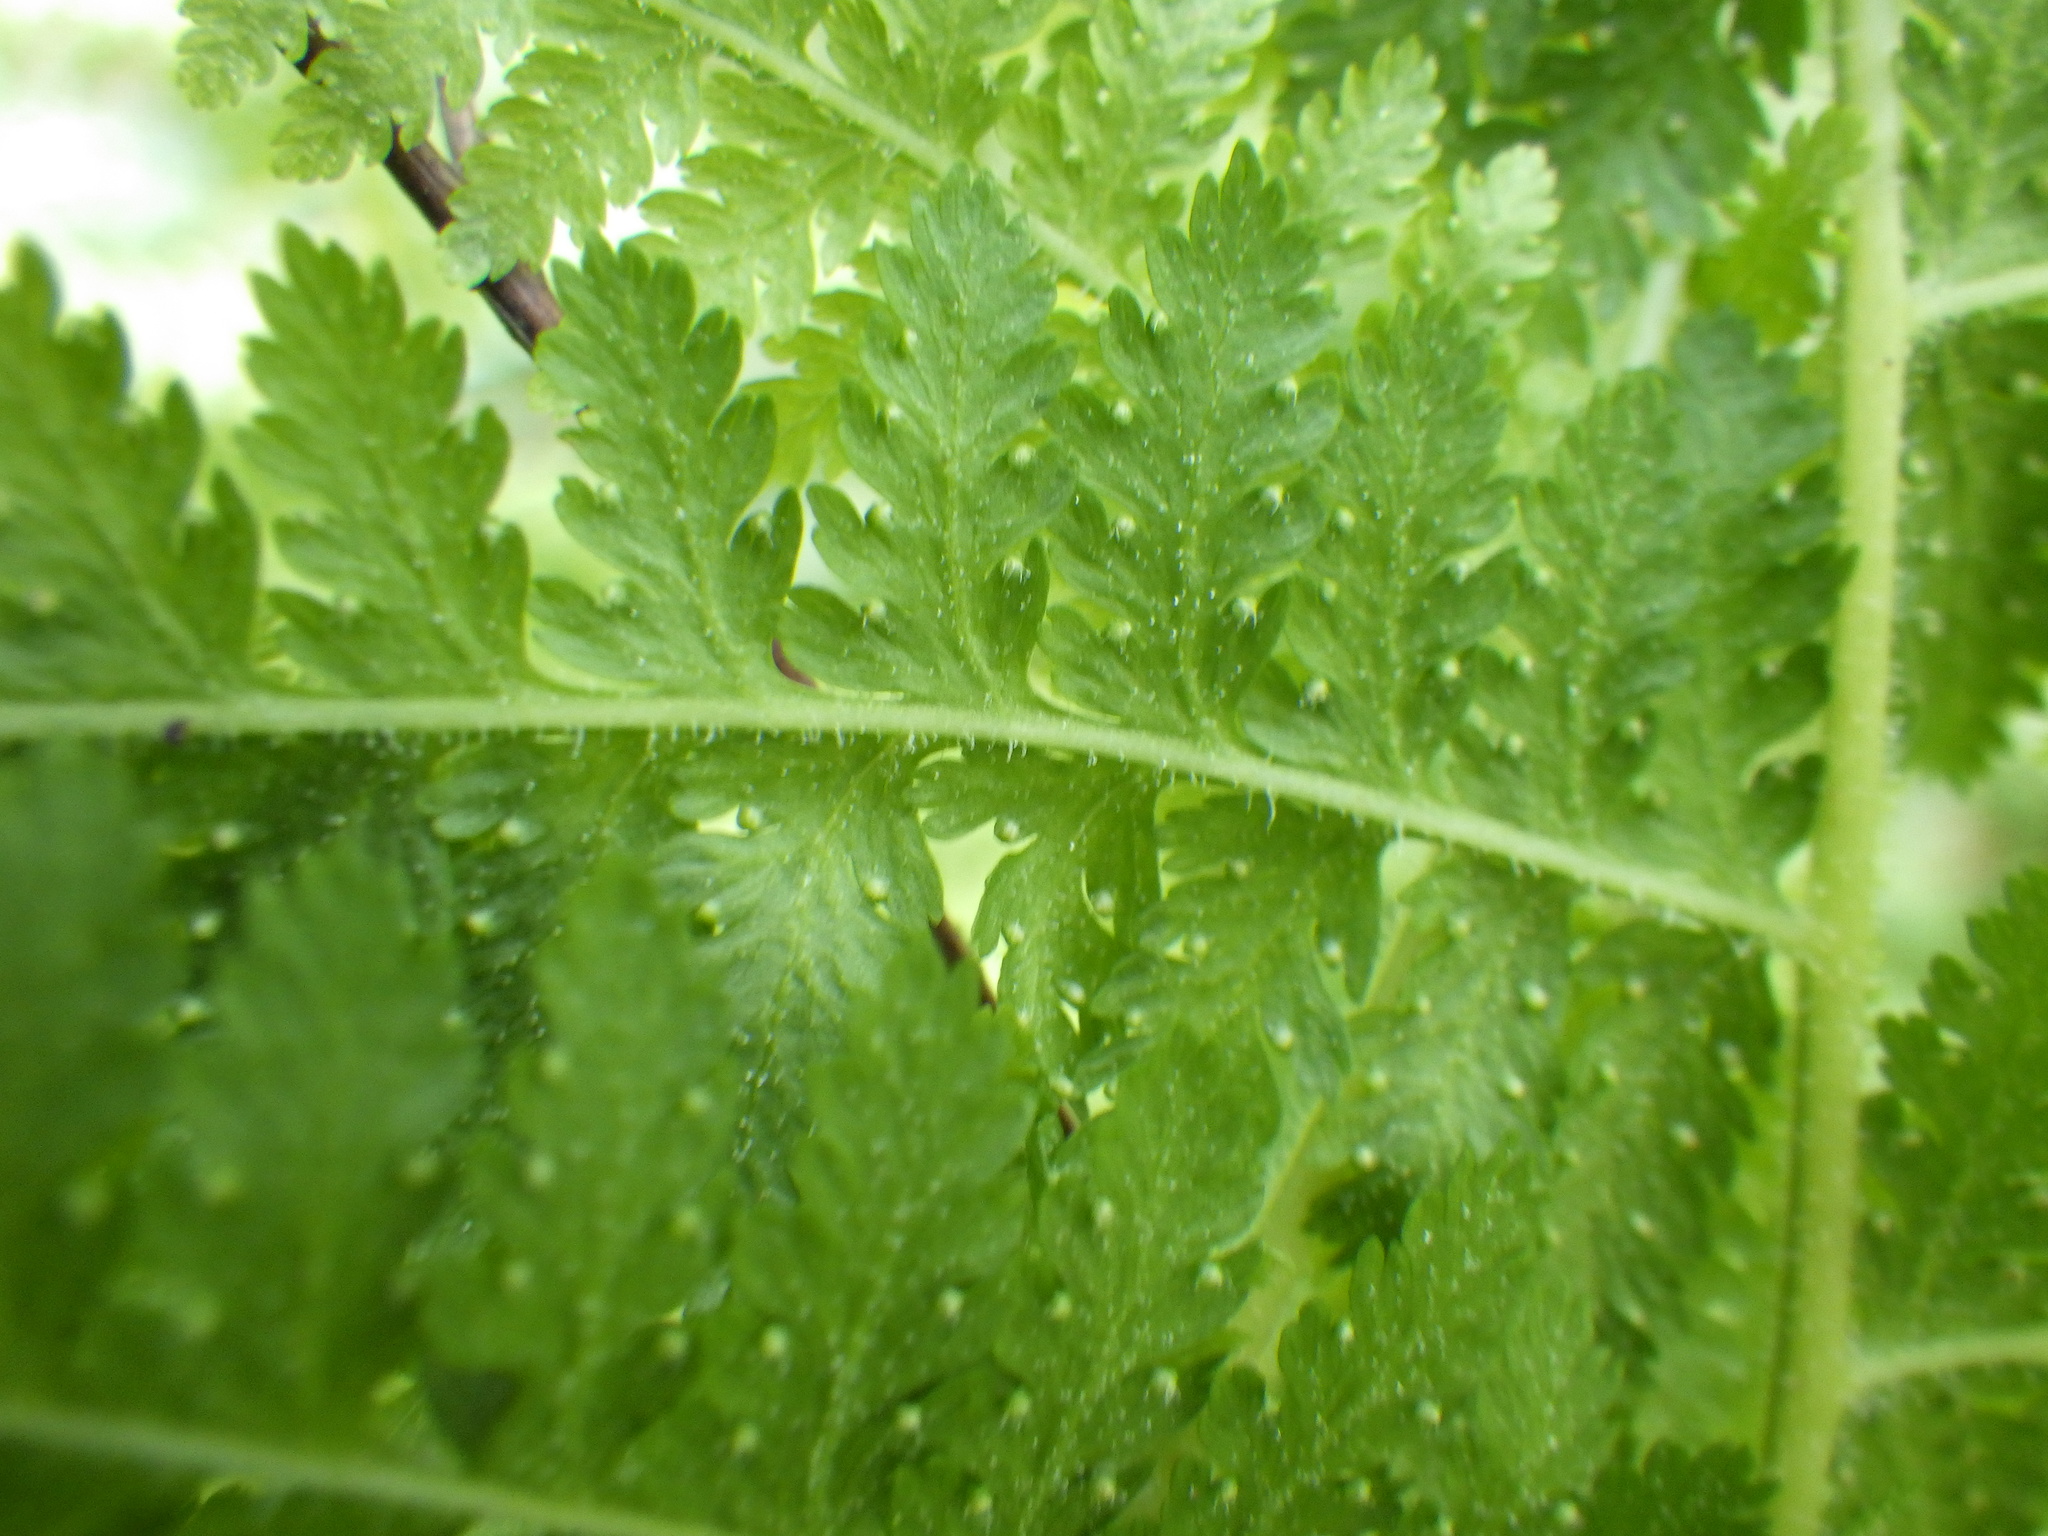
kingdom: Plantae
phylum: Tracheophyta
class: Polypodiopsida
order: Polypodiales
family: Dennstaedtiaceae
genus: Sitobolium
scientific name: Sitobolium punctilobum
